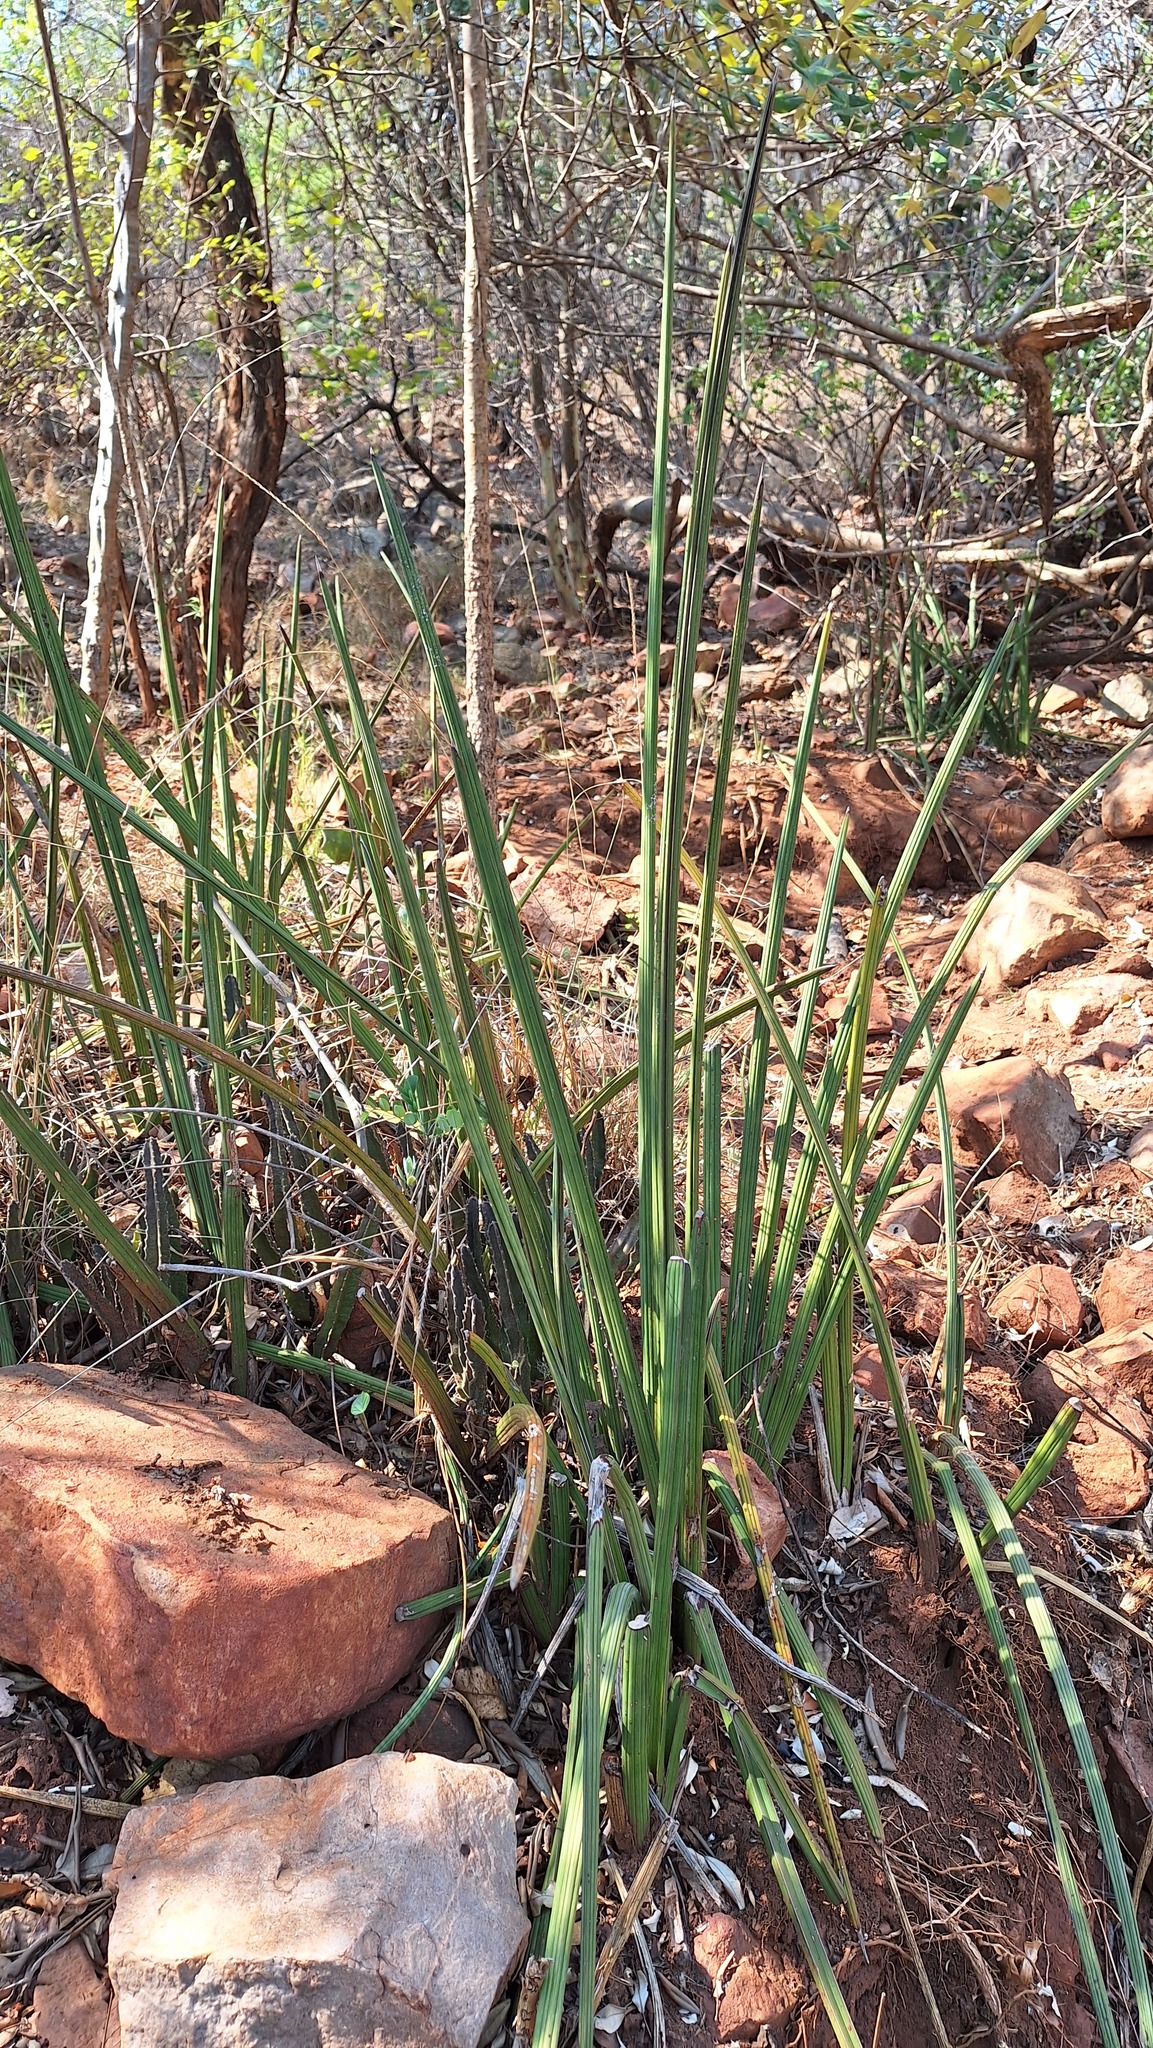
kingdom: Plantae
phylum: Tracheophyta
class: Liliopsida
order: Asparagales
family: Asparagaceae
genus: Dracaena
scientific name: Dracaena hallii
